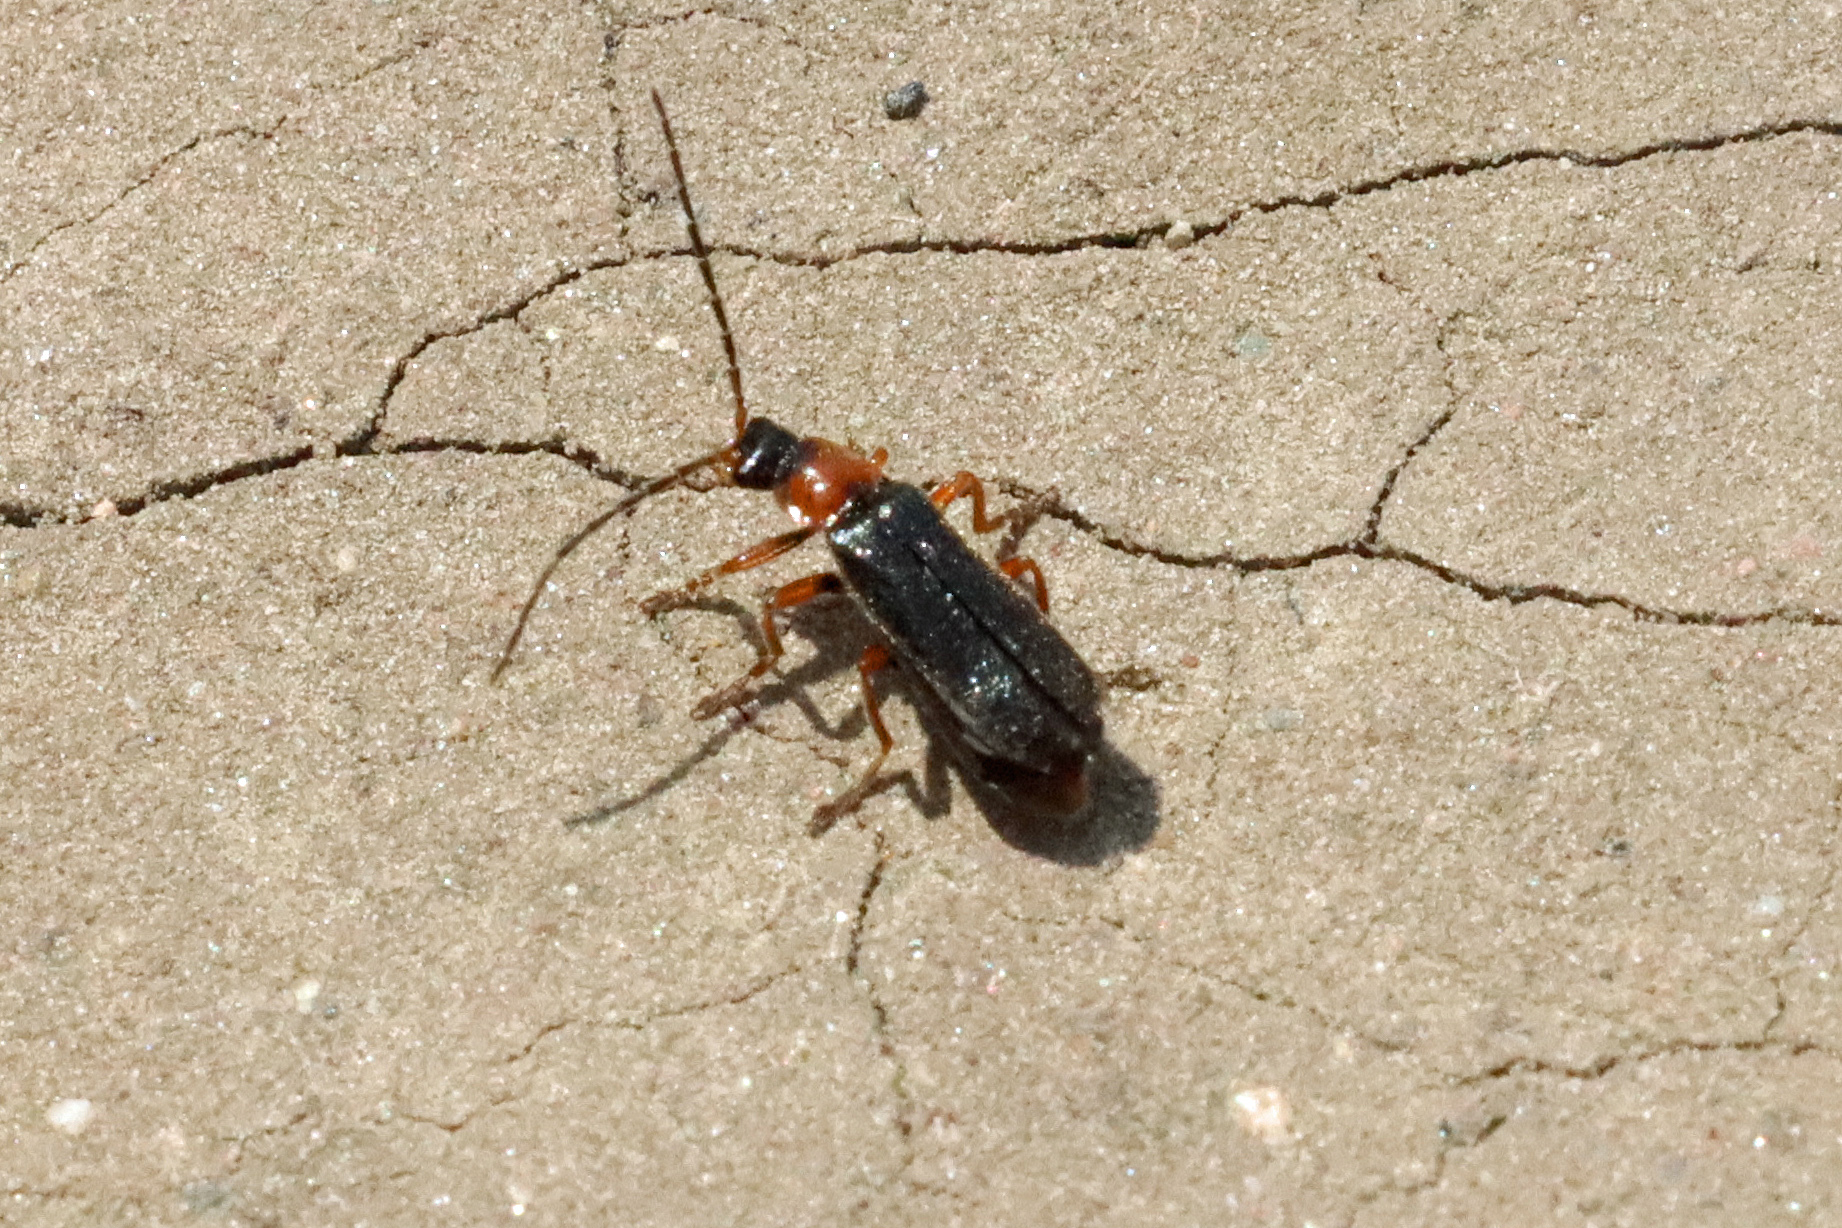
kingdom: Animalia
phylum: Arthropoda
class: Insecta
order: Coleoptera
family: Cantharidae
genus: Cantharis
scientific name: Cantharis flavilabris
